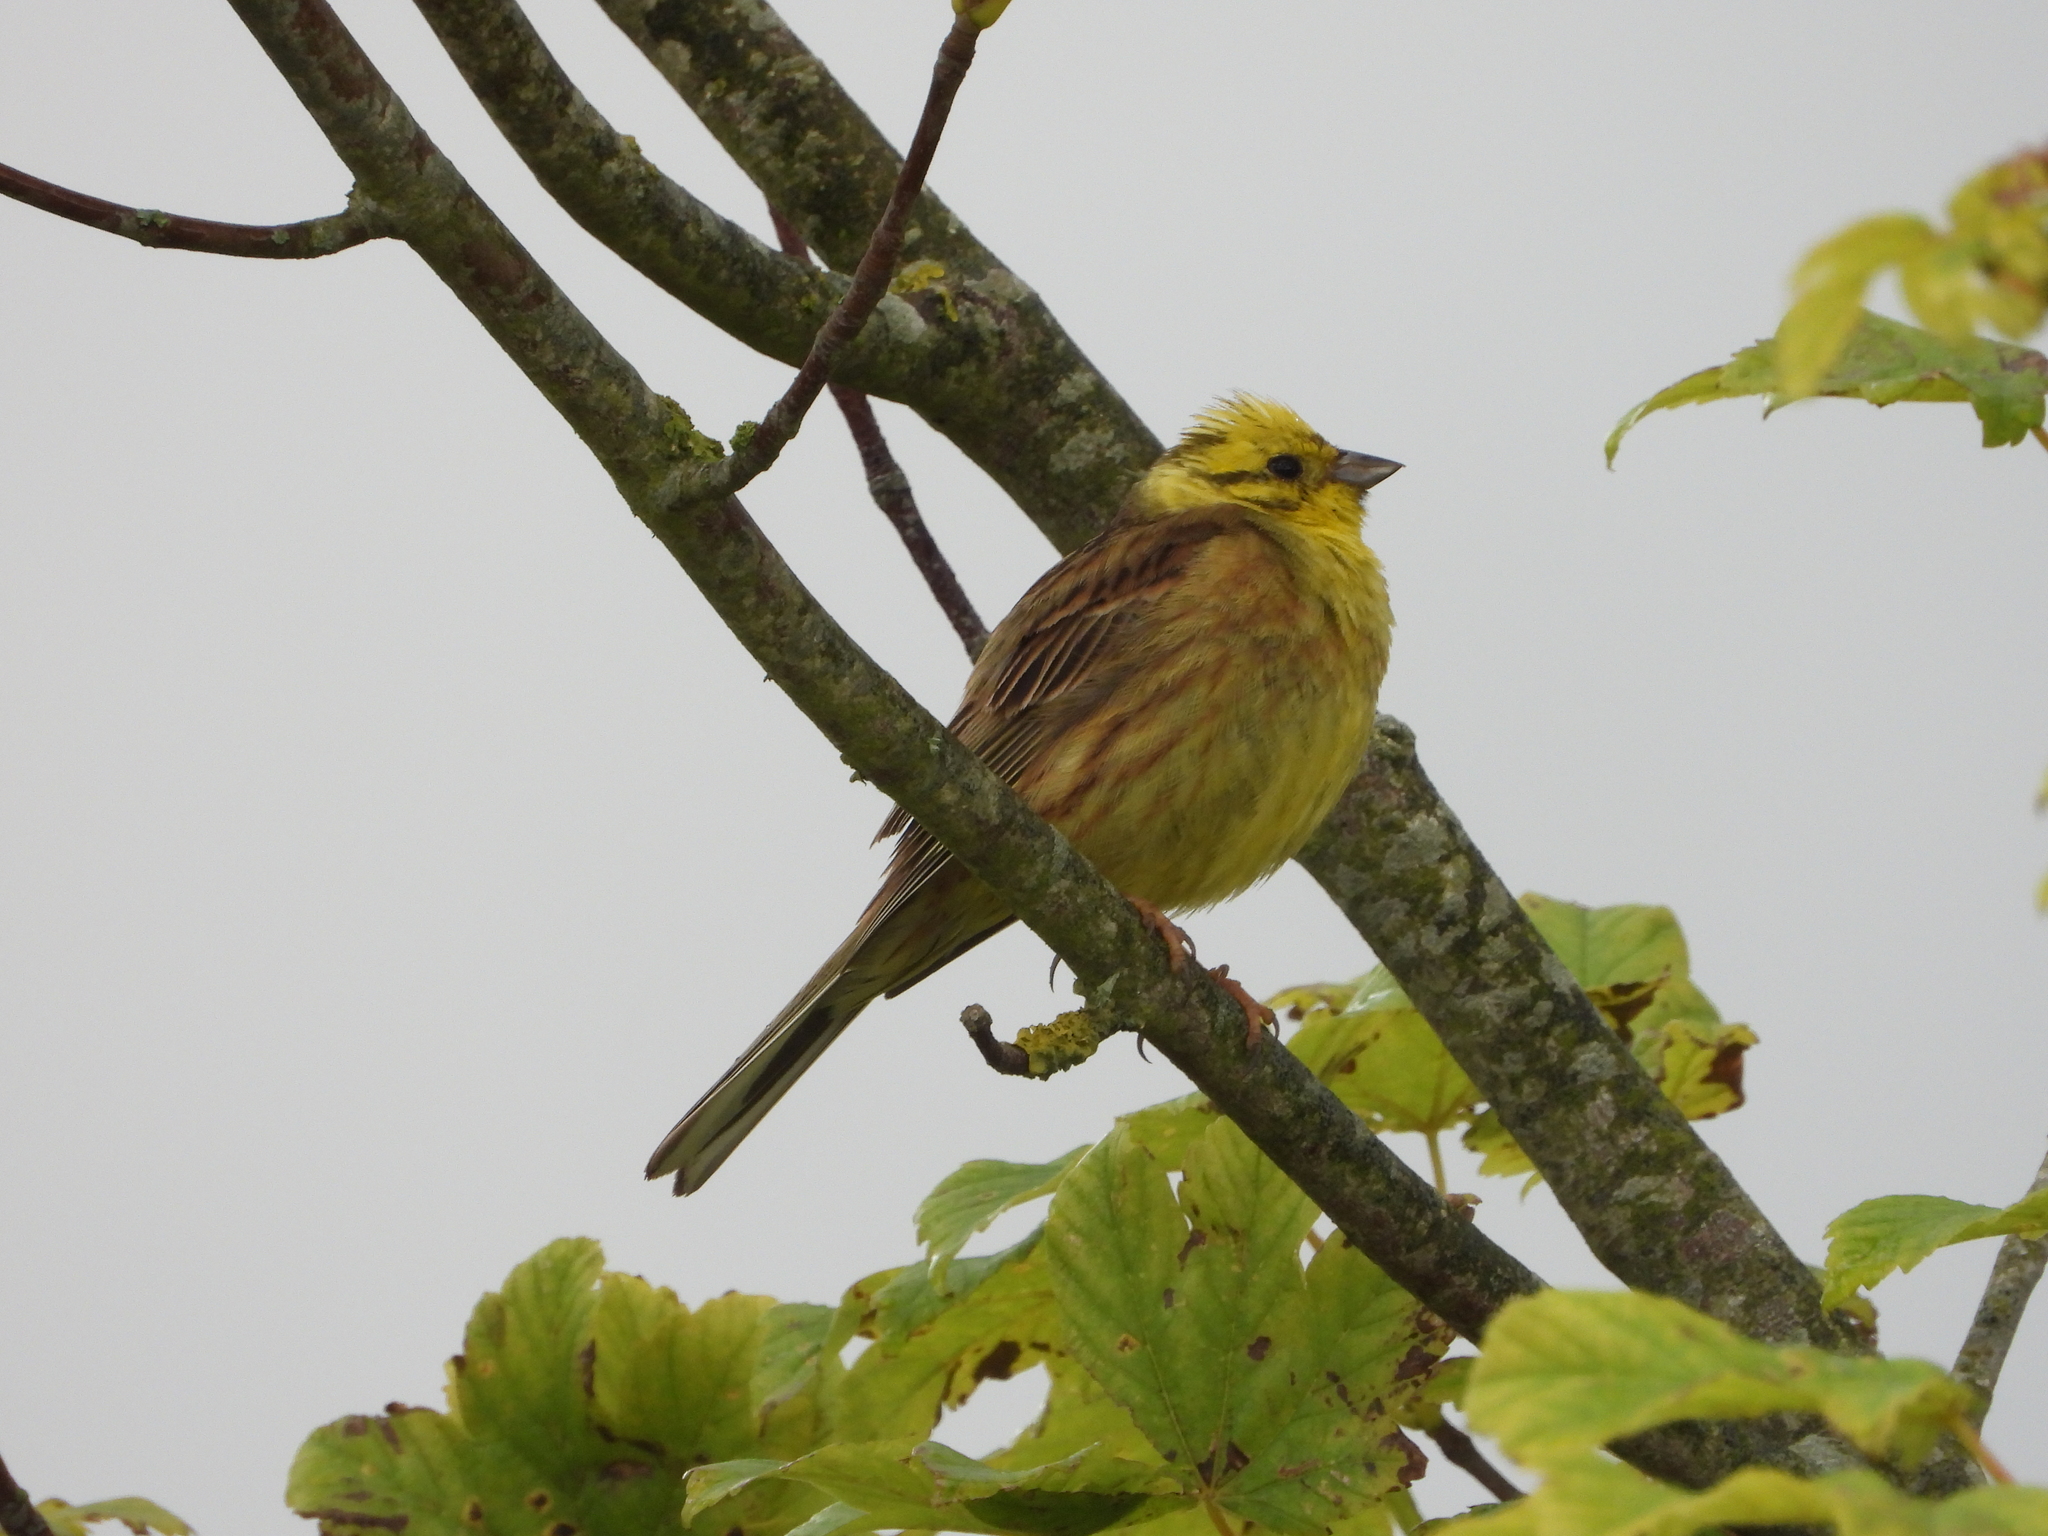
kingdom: Animalia
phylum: Chordata
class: Aves
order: Passeriformes
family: Emberizidae
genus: Emberiza
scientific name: Emberiza citrinella
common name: Yellowhammer
